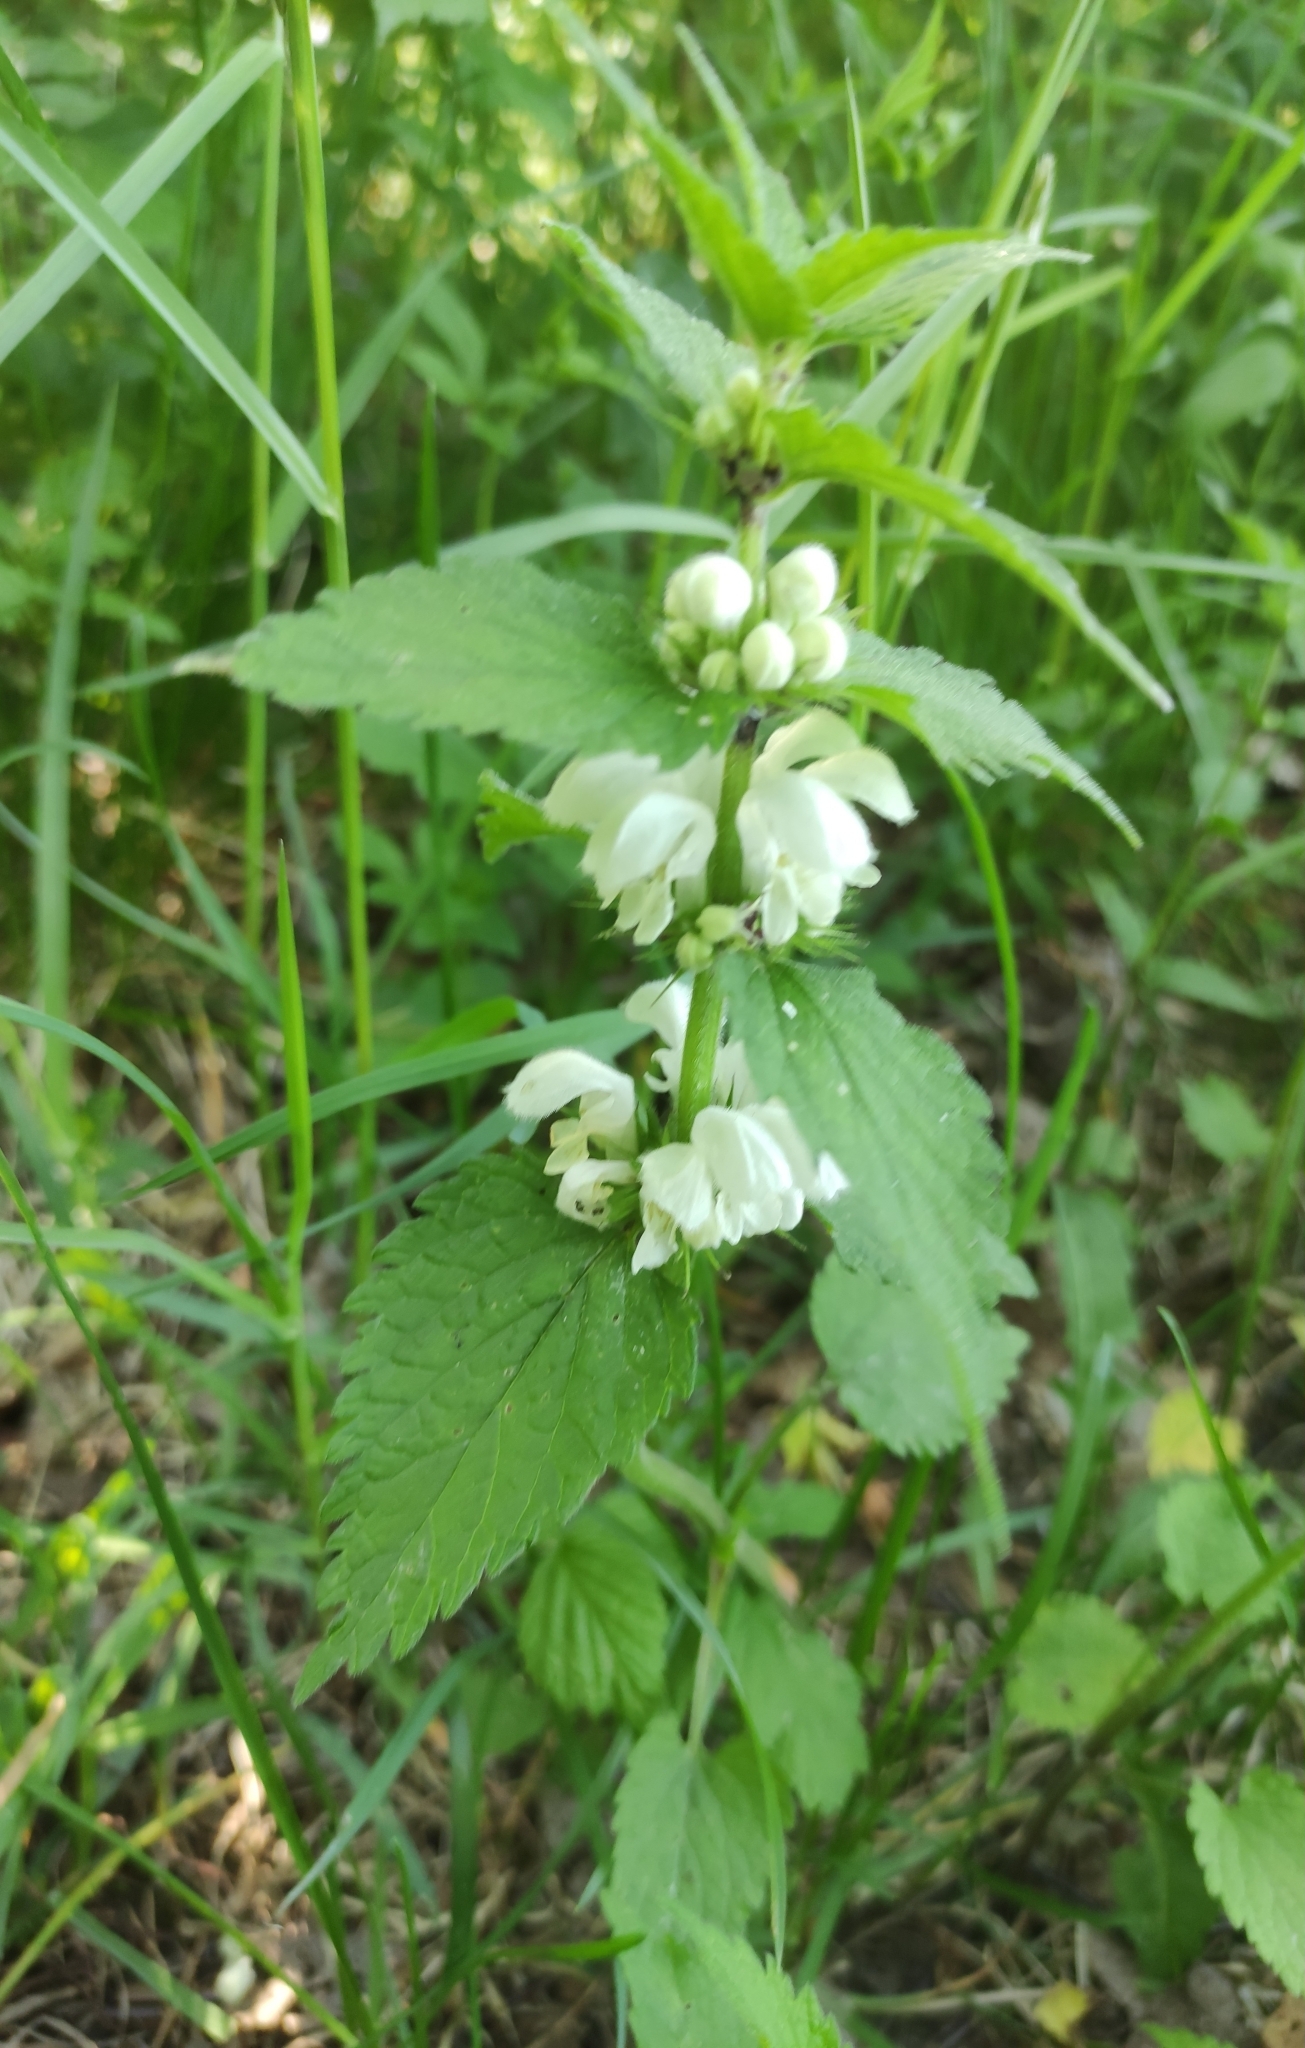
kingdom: Plantae
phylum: Tracheophyta
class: Magnoliopsida
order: Lamiales
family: Lamiaceae
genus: Lamium
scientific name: Lamium album
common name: White dead-nettle
